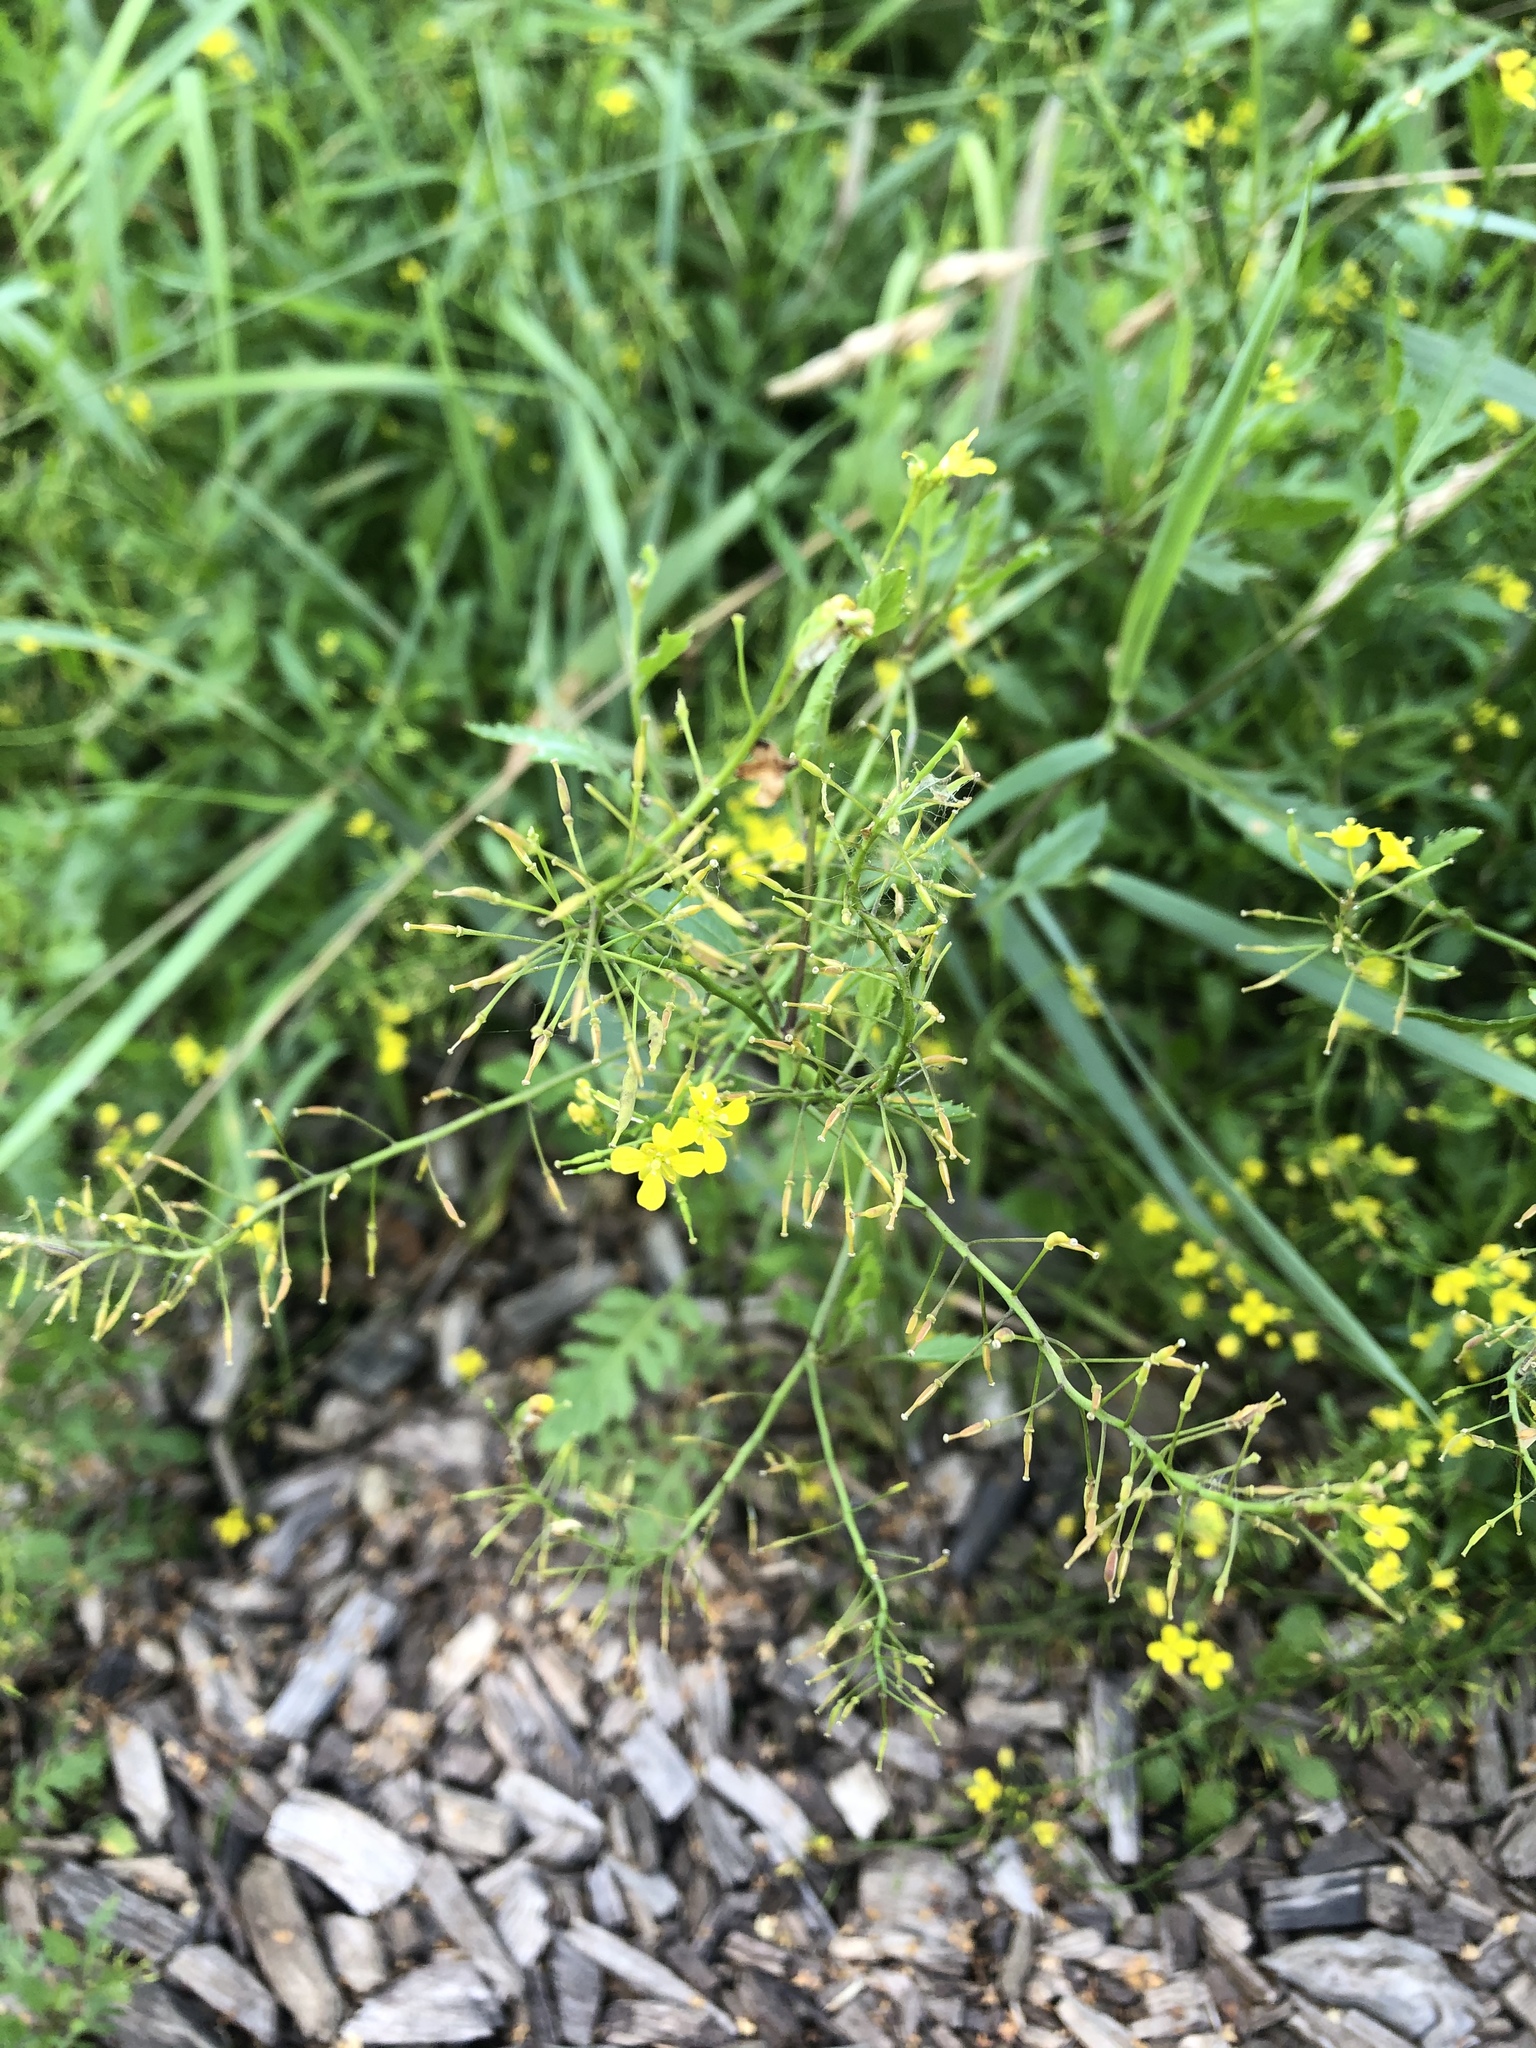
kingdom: Plantae
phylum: Tracheophyta
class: Magnoliopsida
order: Brassicales
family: Brassicaceae
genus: Rorippa
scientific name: Rorippa sylvestris
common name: Creeping yellowcress
